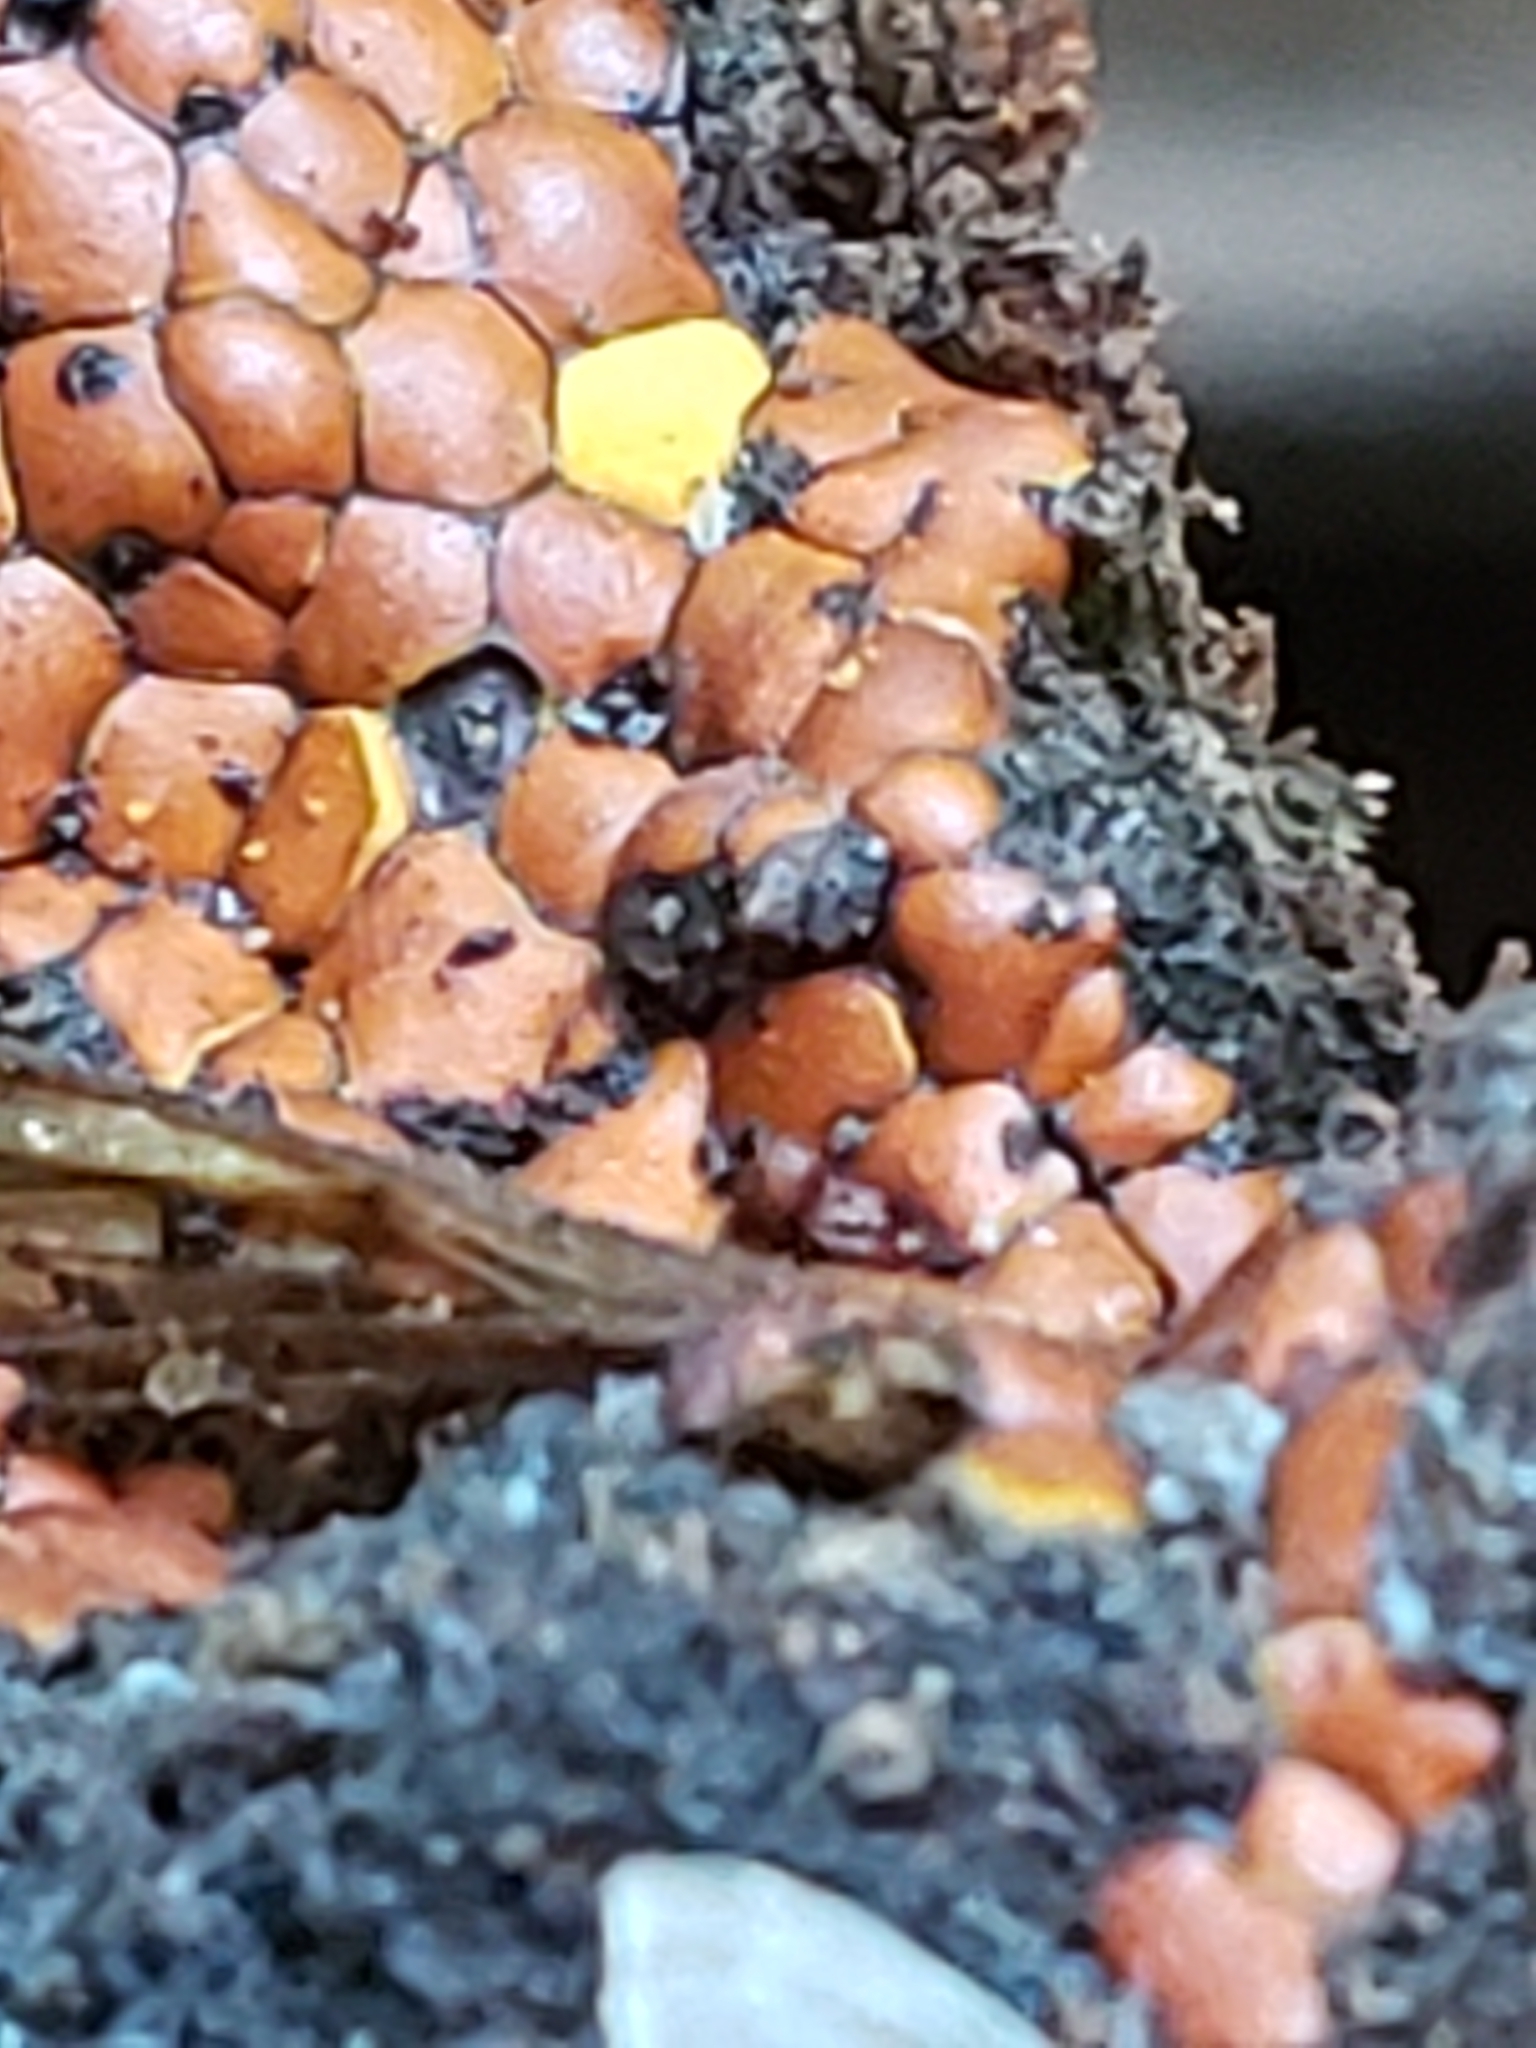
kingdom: Protozoa
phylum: Mycetozoa
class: Myxomycetes
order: Trichiales
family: Trichiaceae
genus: Perichaena
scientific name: Perichaena depressa
